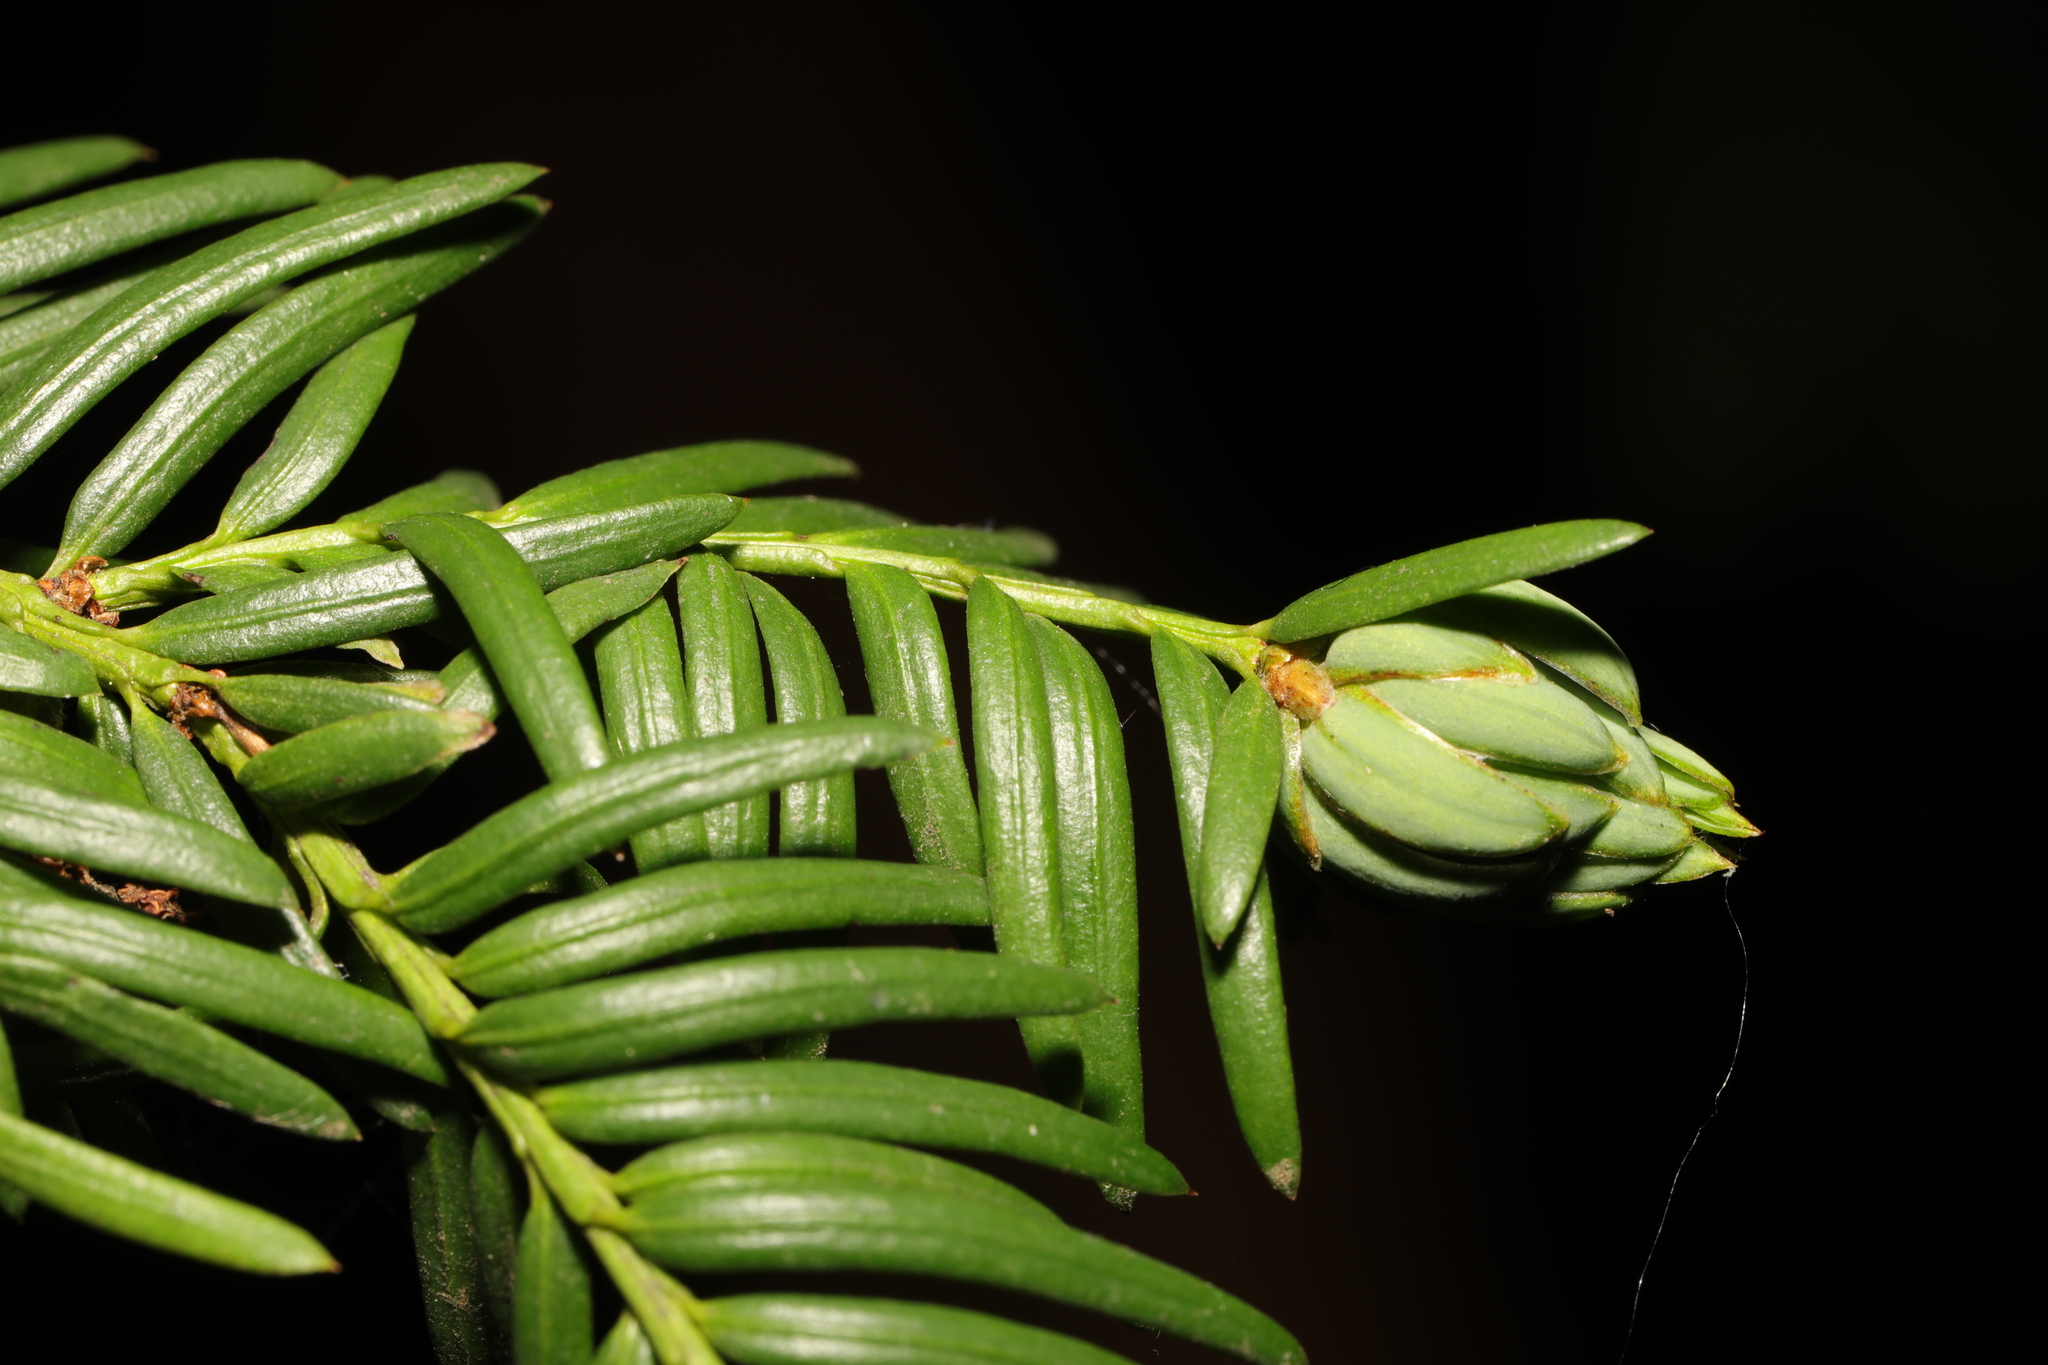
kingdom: Animalia
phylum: Arthropoda
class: Insecta
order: Diptera
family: Cecidomyiidae
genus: Taxomyia
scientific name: Taxomyia taxi
